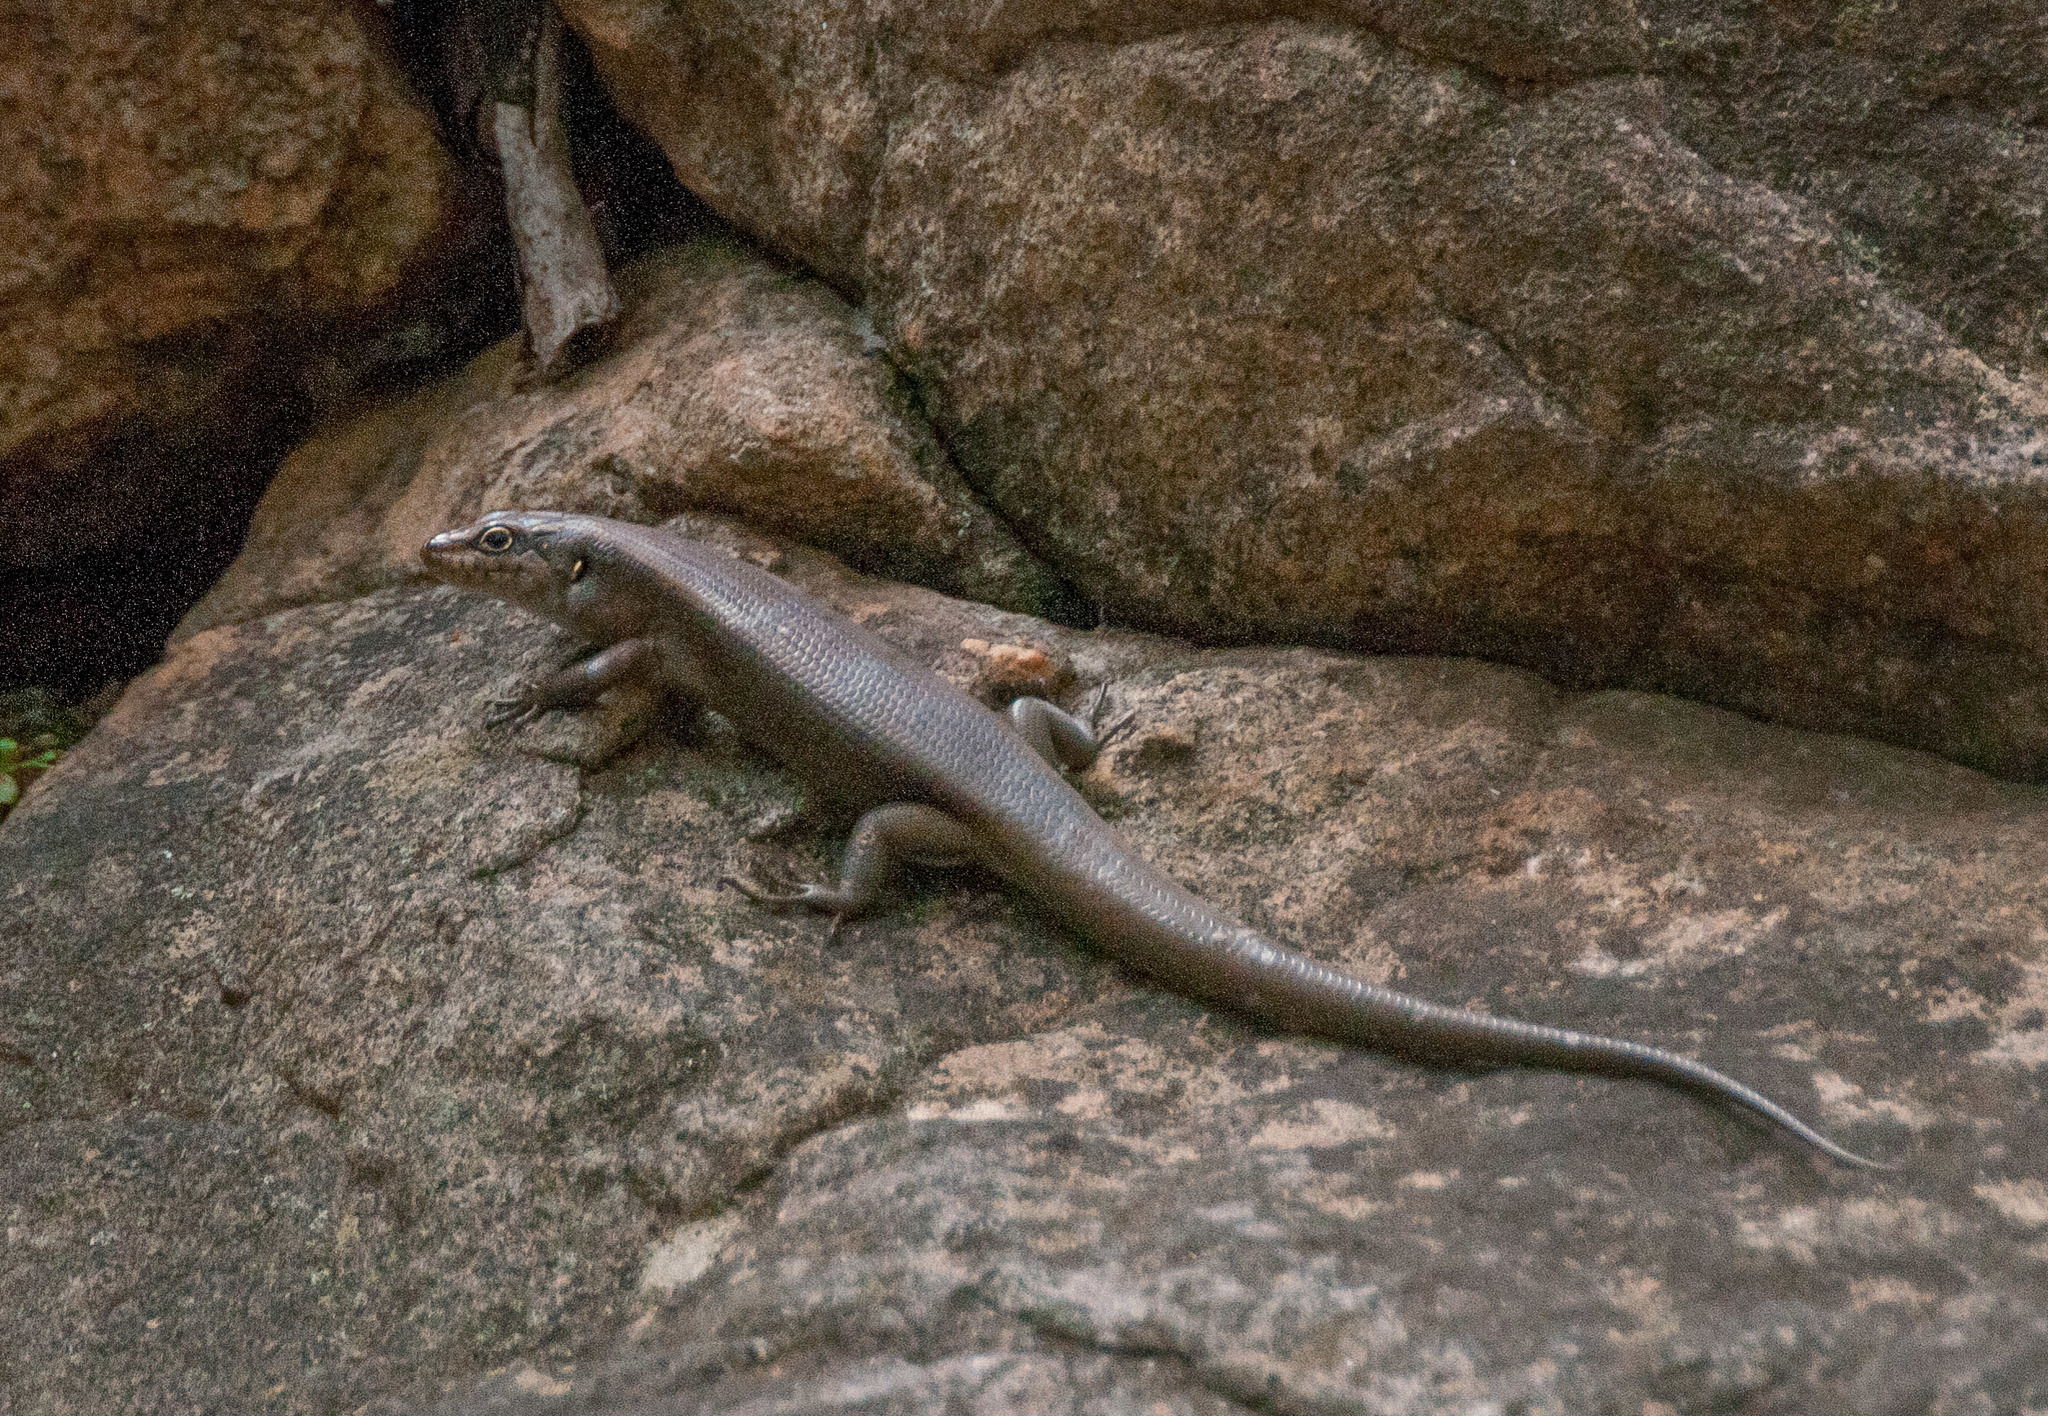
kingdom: Animalia
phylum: Chordata
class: Squamata
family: Scincidae
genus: Liopholis
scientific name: Liopholis personata
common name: Centralian ranges rock-skink
